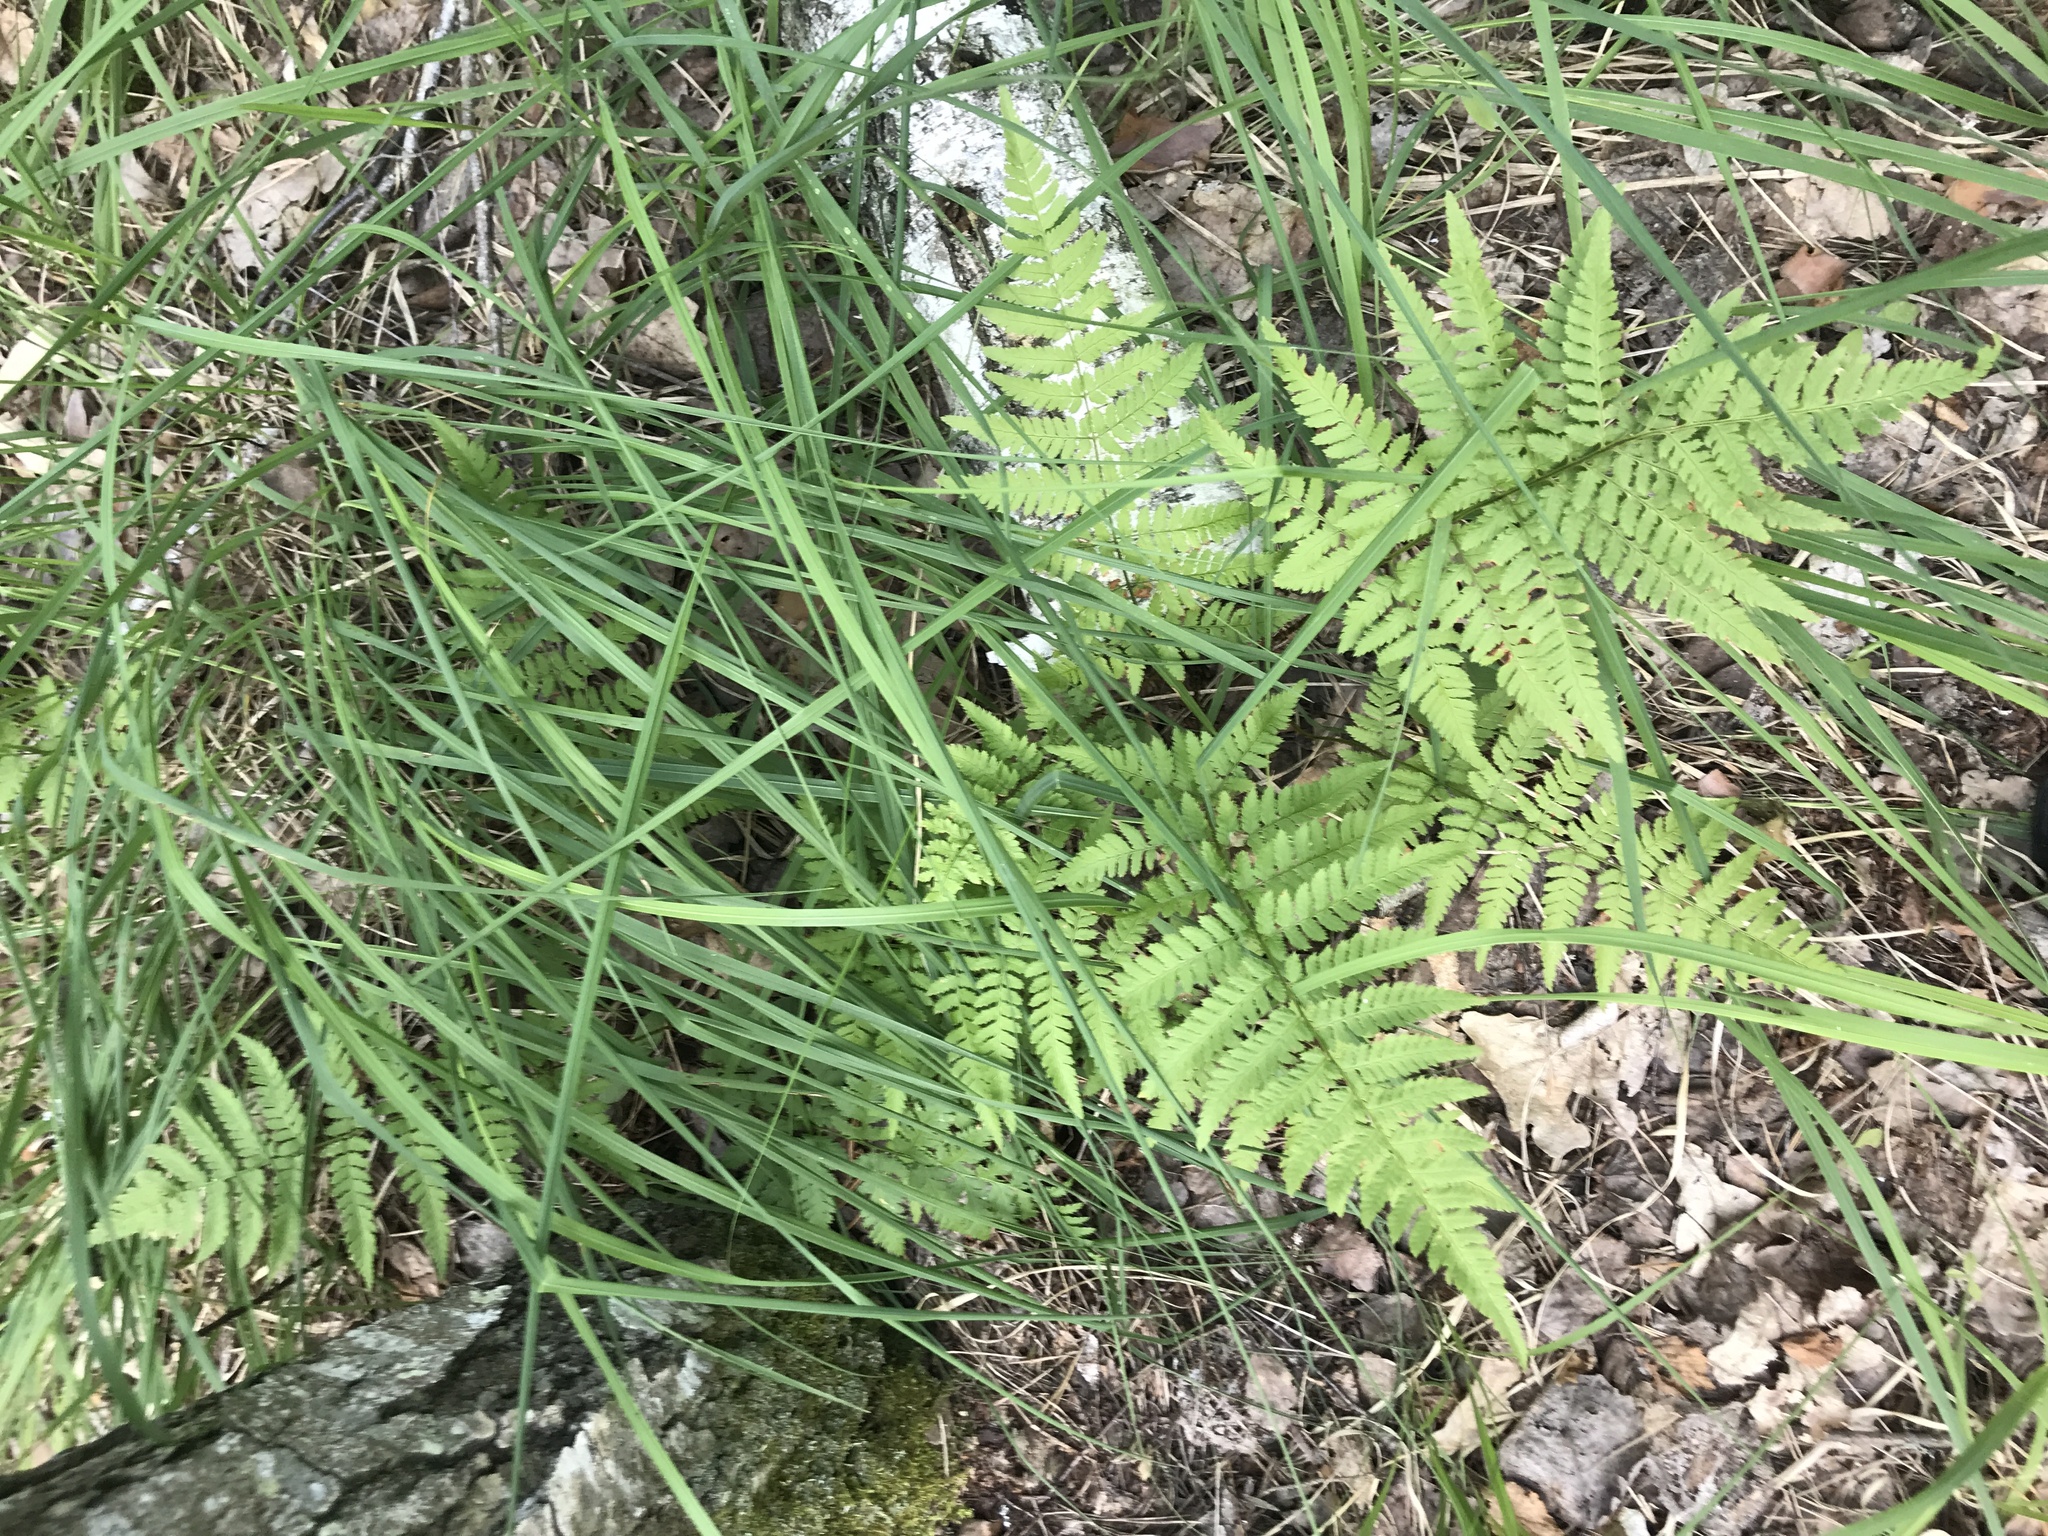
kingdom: Plantae
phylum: Tracheophyta
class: Polypodiopsida
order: Polypodiales
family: Dryopteridaceae
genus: Dryopteris
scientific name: Dryopteris carthusiana
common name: Narrow buckler-fern
